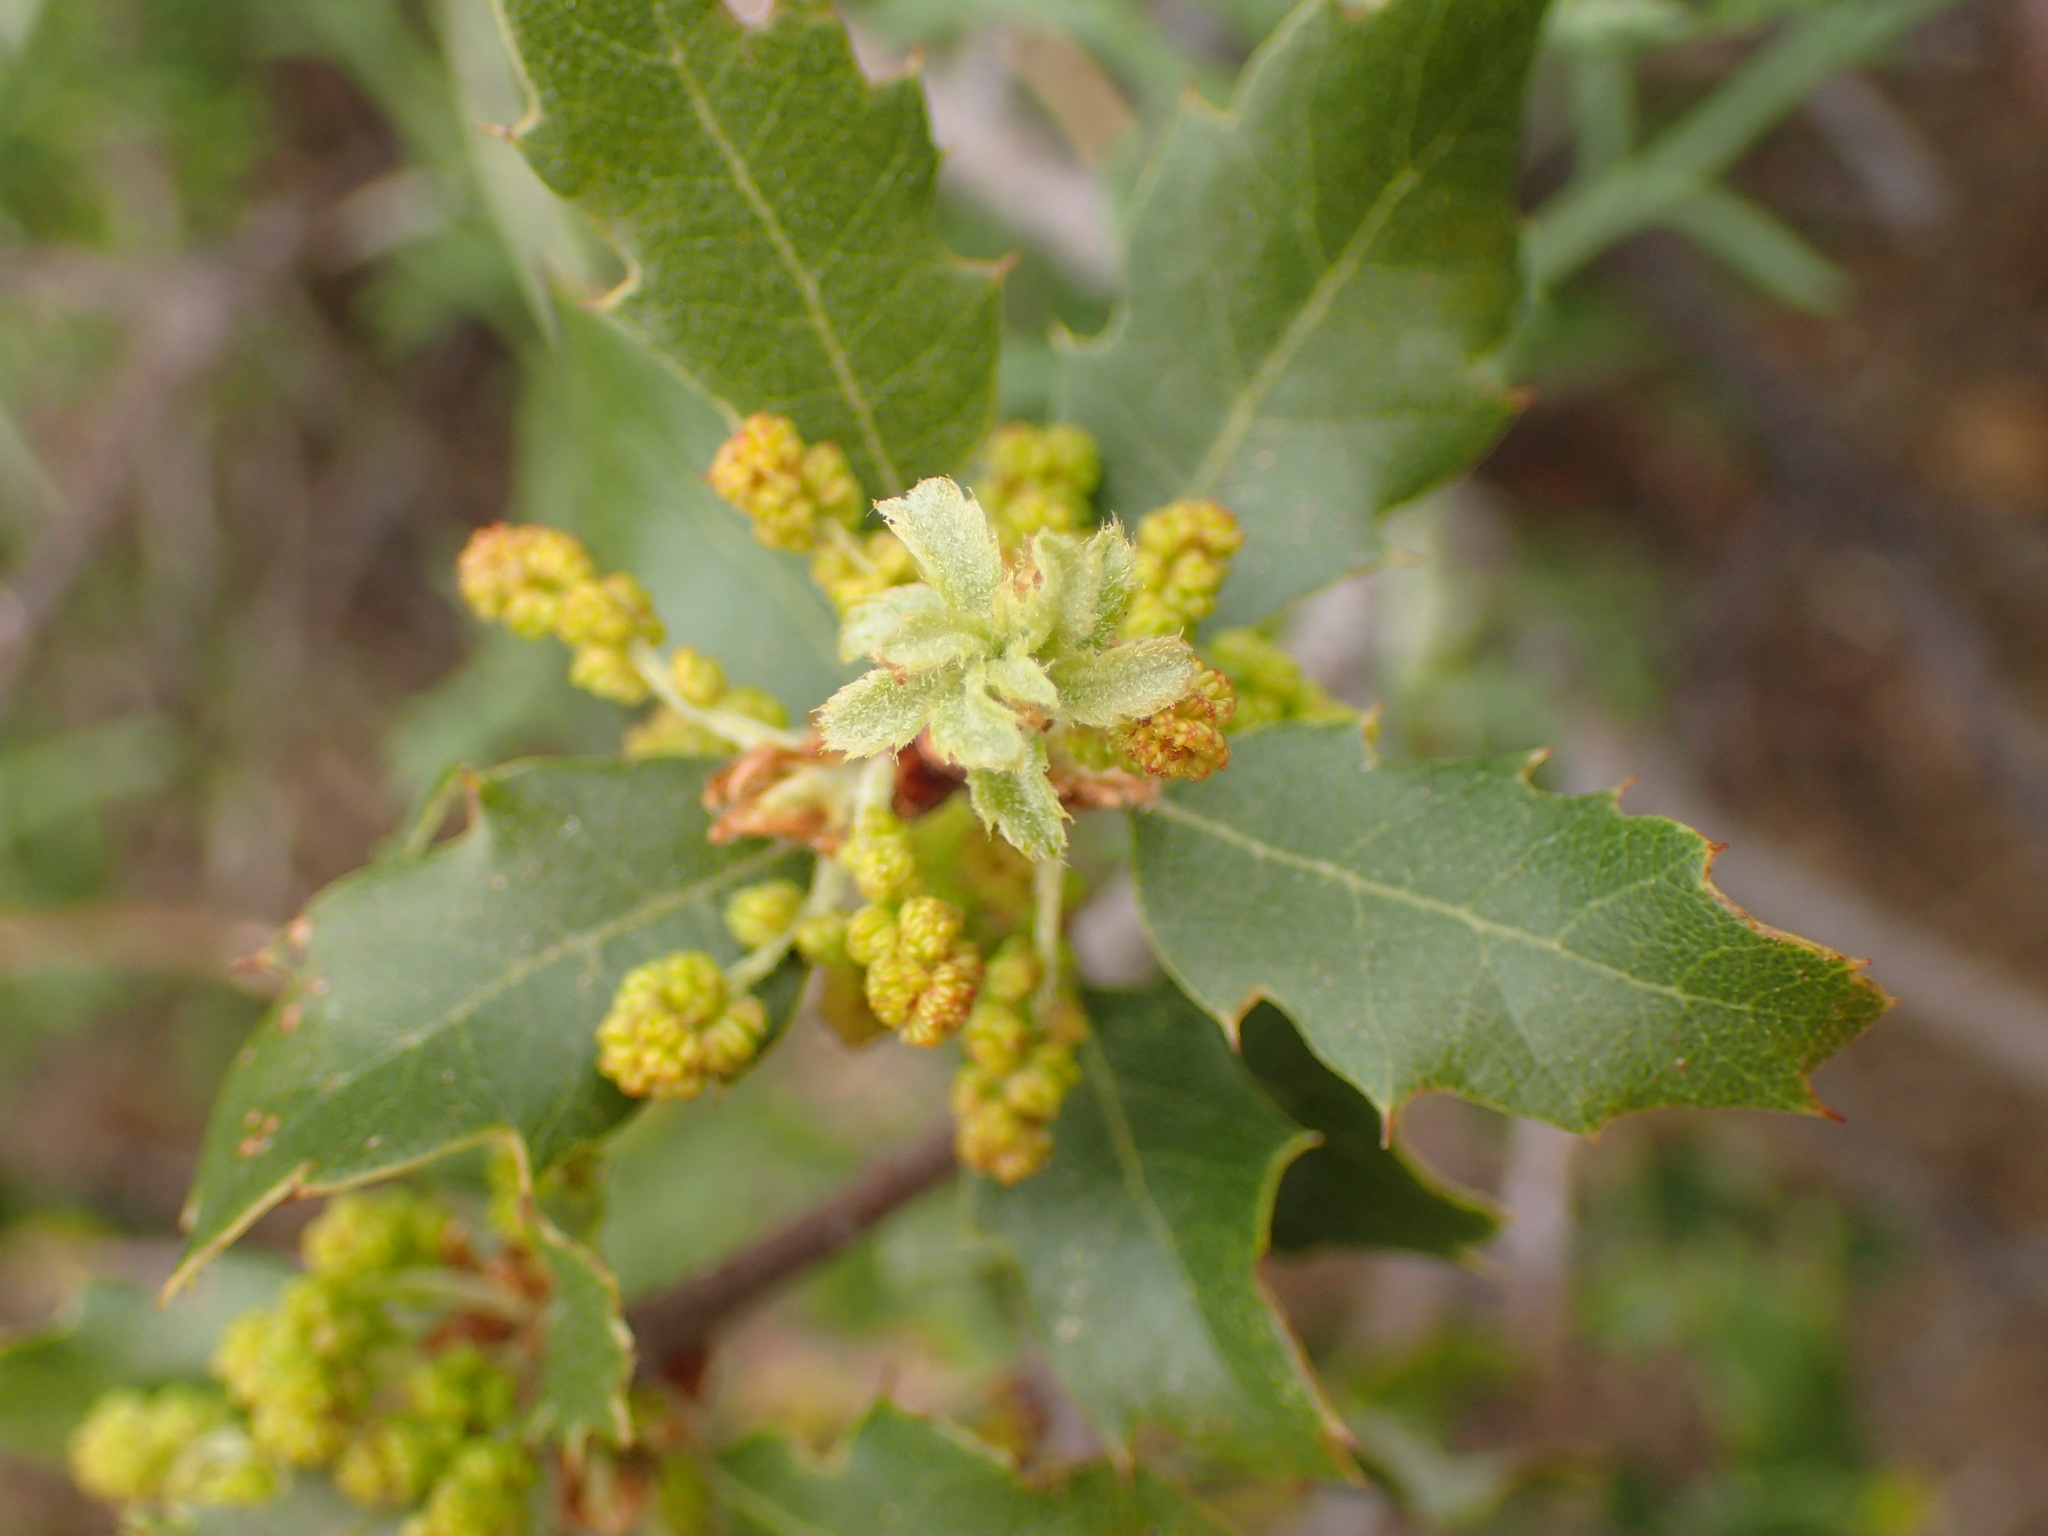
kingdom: Plantae
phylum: Tracheophyta
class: Magnoliopsida
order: Fagales
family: Fagaceae
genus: Quercus
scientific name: Quercus berberidifolia
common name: California scrub oak
